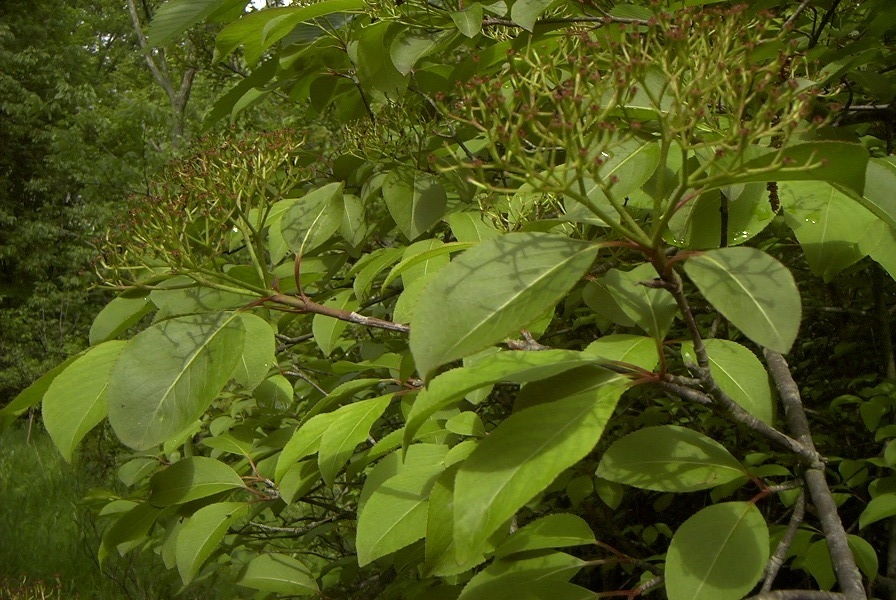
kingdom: Plantae
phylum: Tracheophyta
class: Magnoliopsida
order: Dipsacales
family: Viburnaceae
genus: Viburnum
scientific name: Viburnum lentago
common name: Black haw
